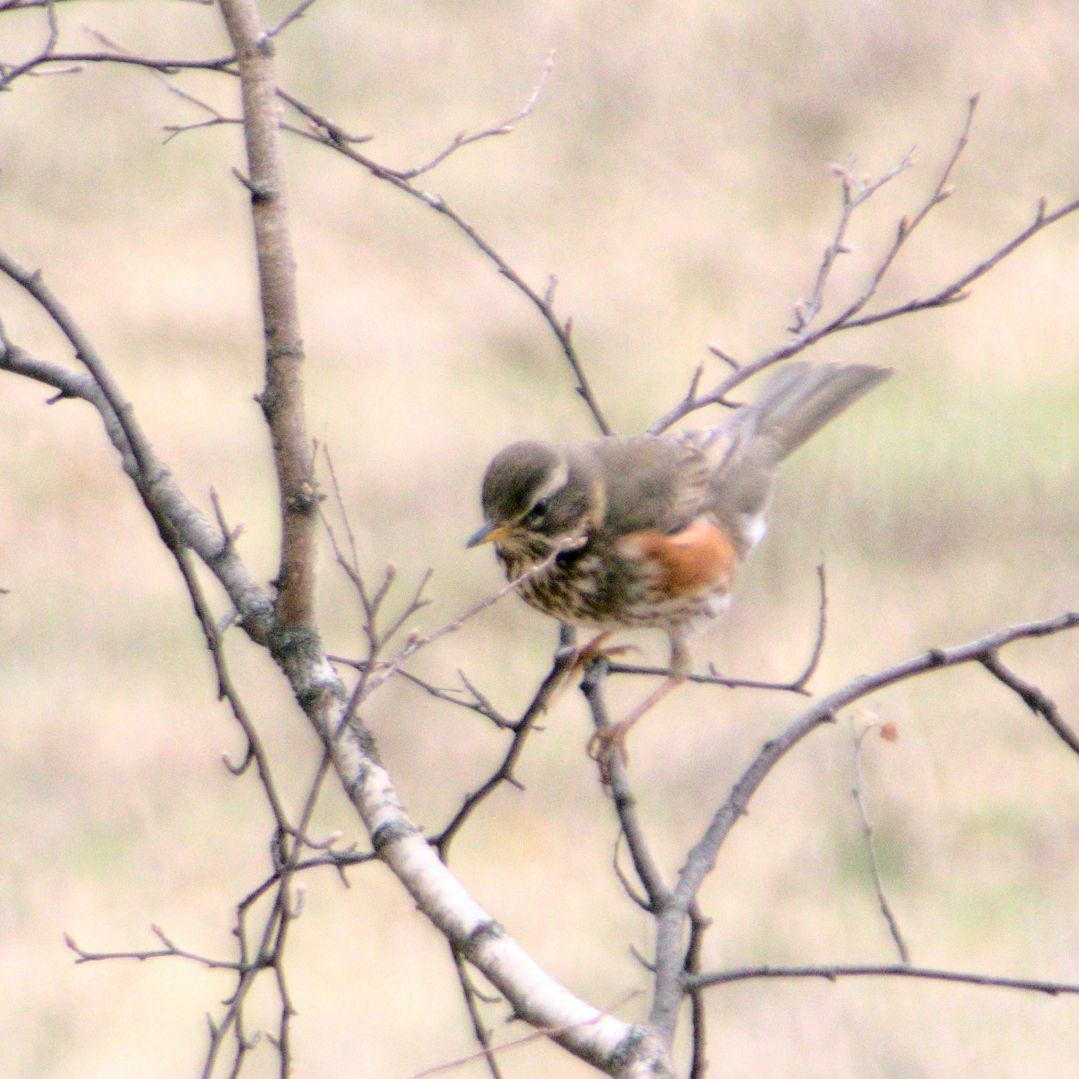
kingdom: Animalia
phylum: Chordata
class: Aves
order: Passeriformes
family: Turdidae
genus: Turdus
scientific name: Turdus iliacus
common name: Redwing
